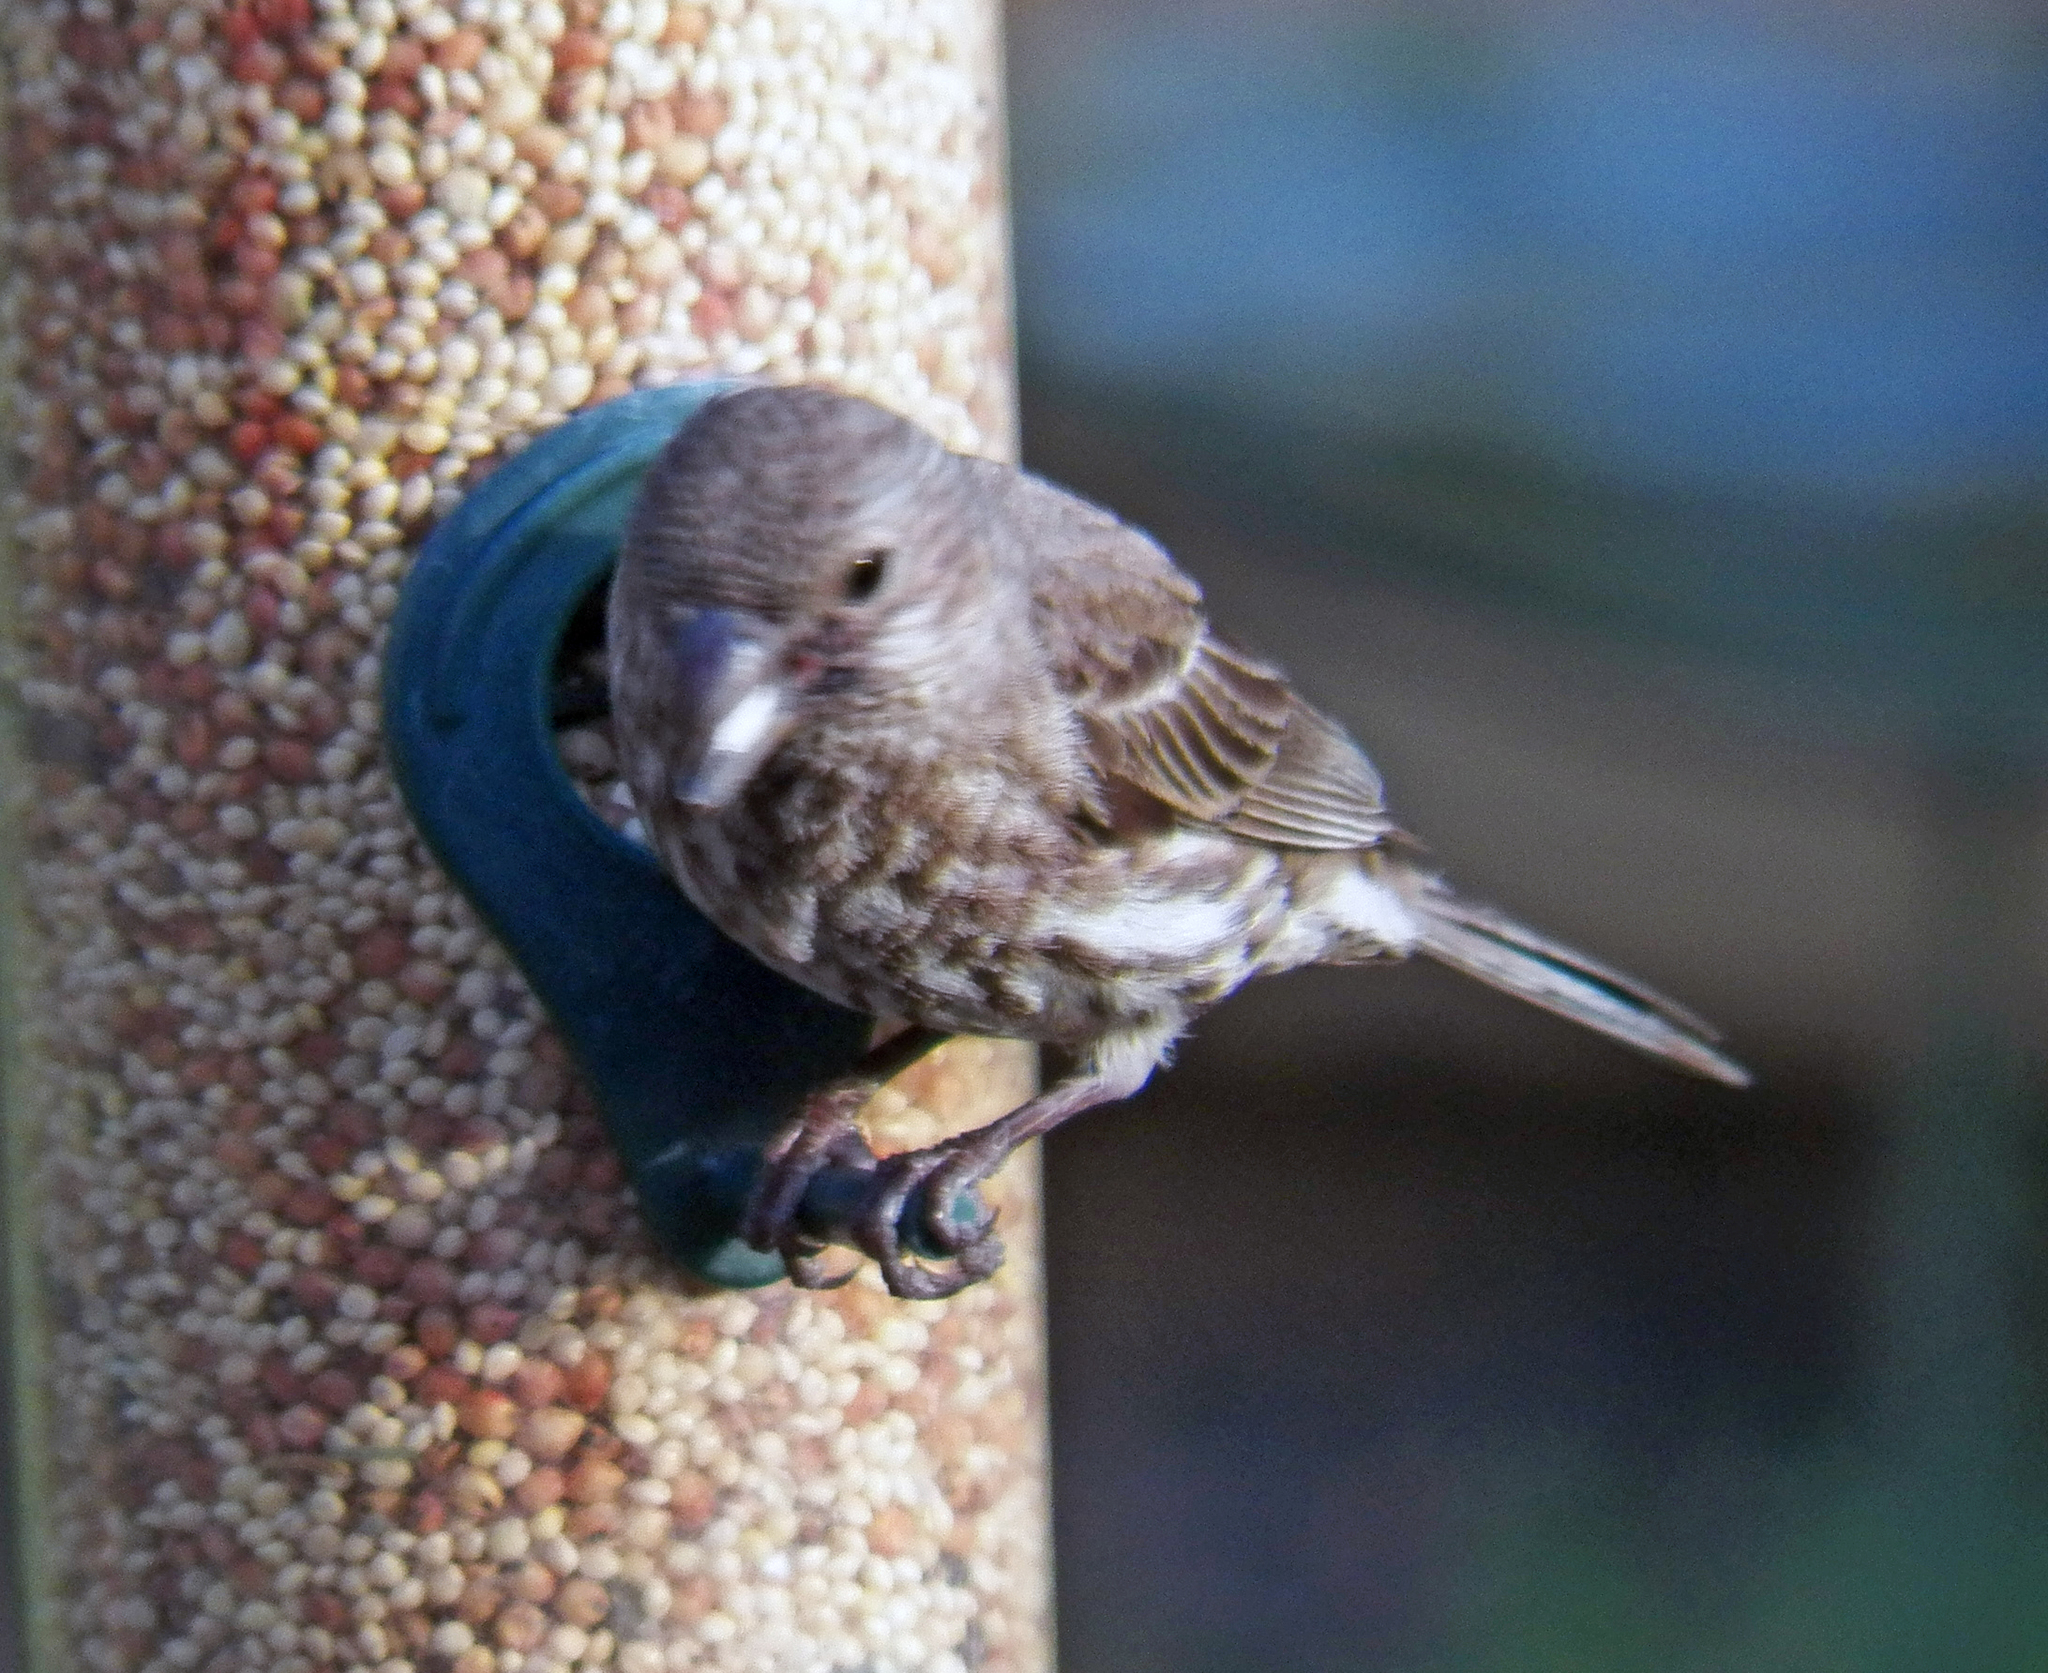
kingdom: Animalia
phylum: Chordata
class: Aves
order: Passeriformes
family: Fringillidae
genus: Haemorhous
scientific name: Haemorhous mexicanus
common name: House finch
